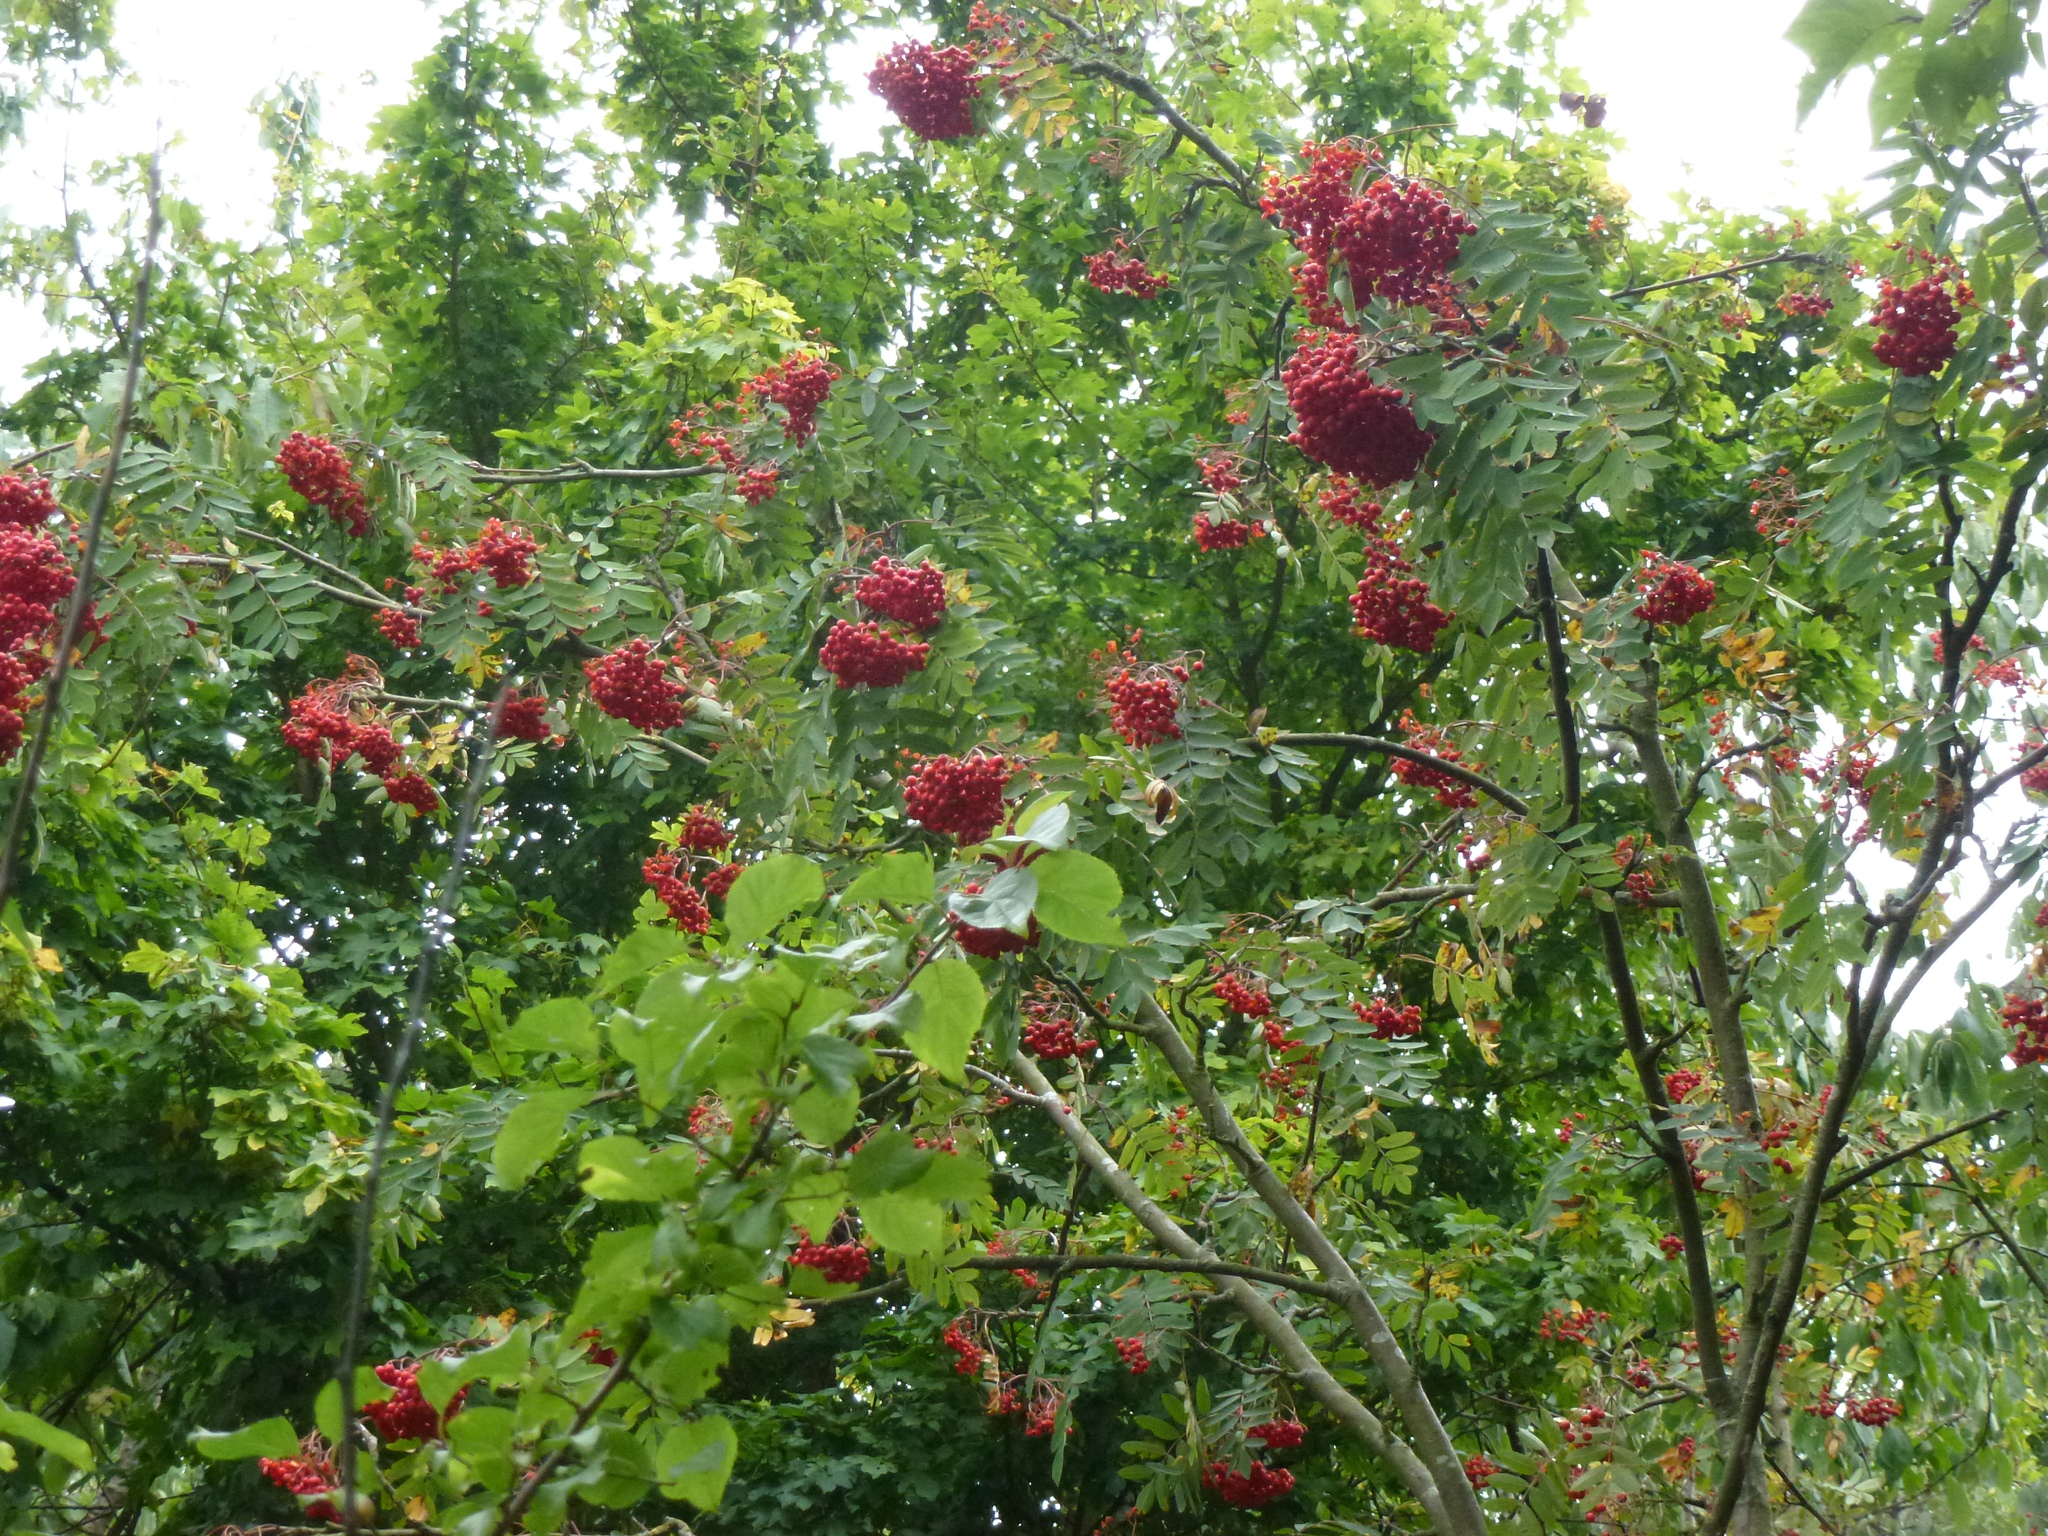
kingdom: Plantae
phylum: Tracheophyta
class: Magnoliopsida
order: Rosales
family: Rosaceae
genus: Sorbus
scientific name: Sorbus aucuparia
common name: Rowan
